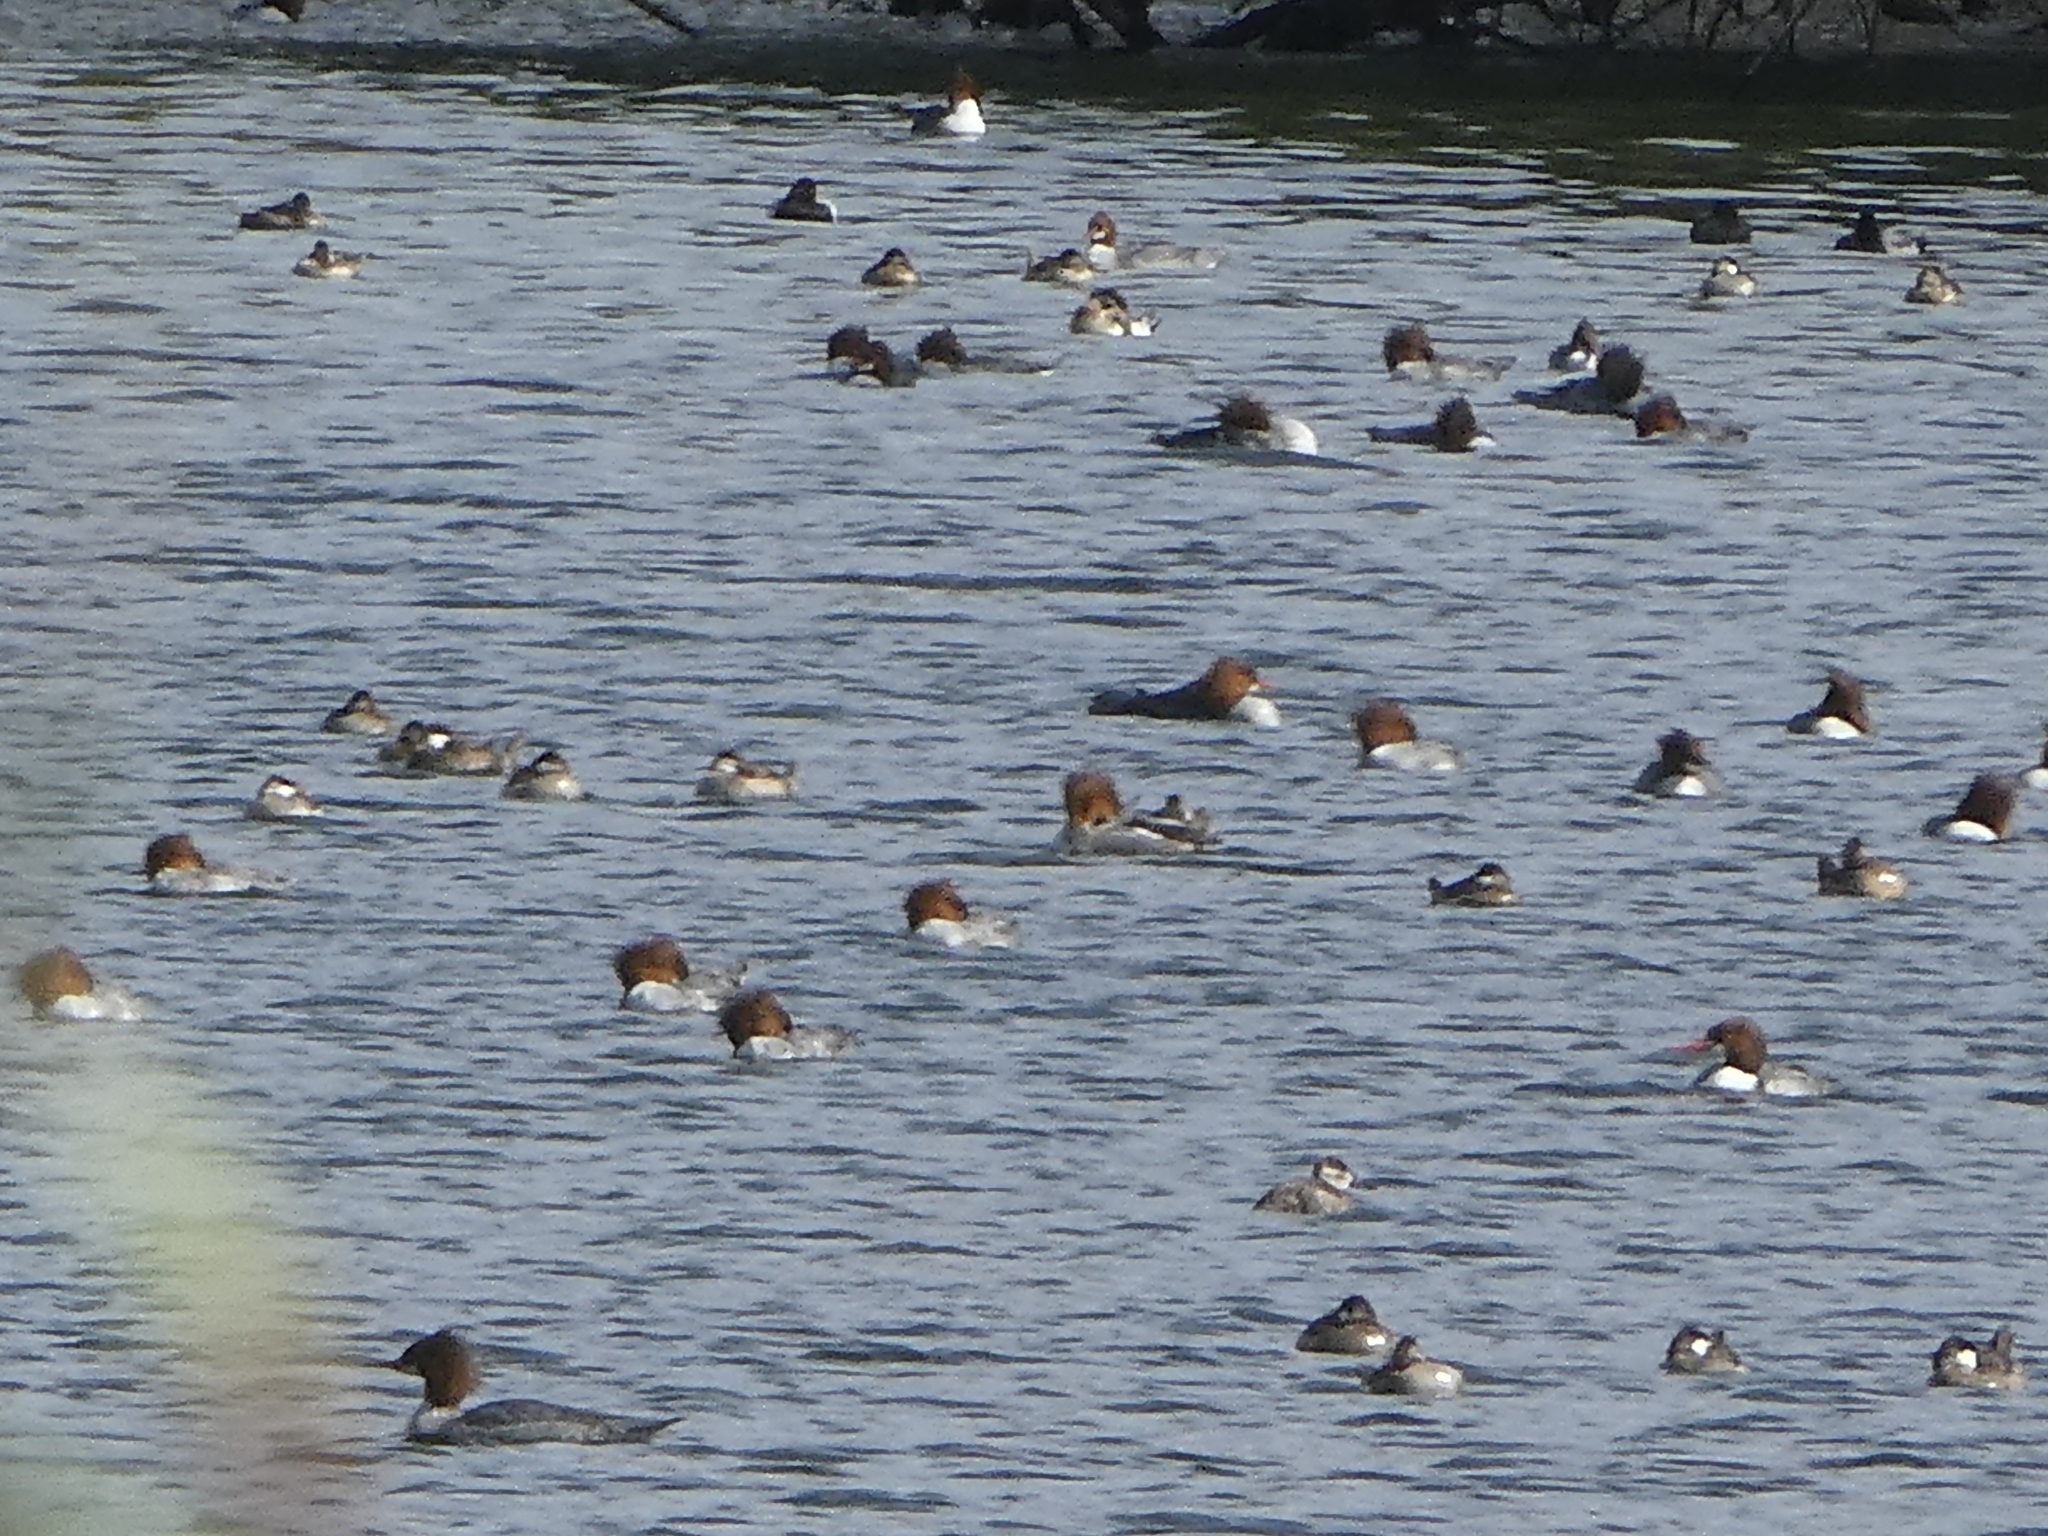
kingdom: Animalia
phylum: Chordata
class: Aves
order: Anseriformes
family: Anatidae
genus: Mergus
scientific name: Mergus merganser
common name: Common merganser
